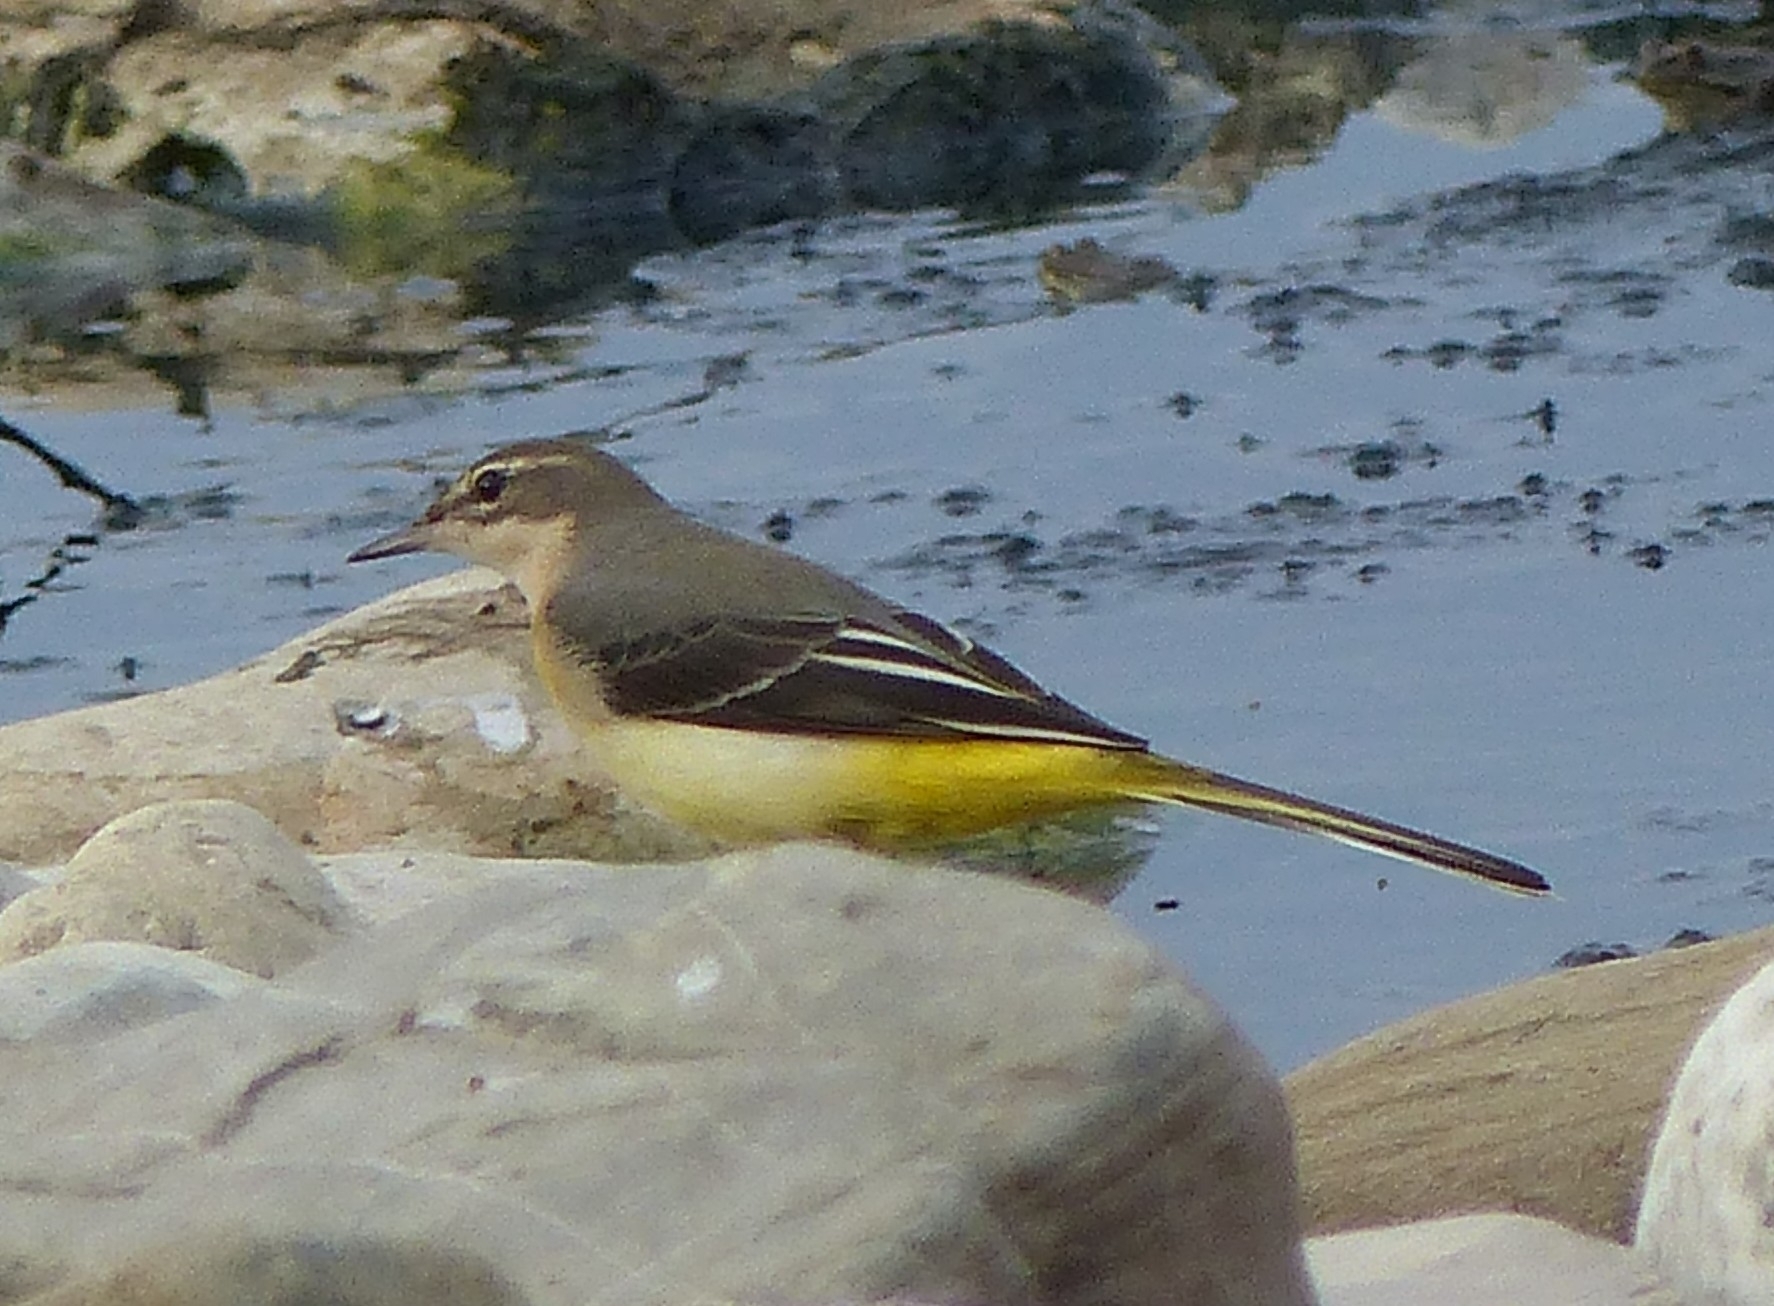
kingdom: Animalia
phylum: Chordata
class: Aves
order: Passeriformes
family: Motacillidae
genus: Motacilla
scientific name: Motacilla cinerea
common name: Grey wagtail
